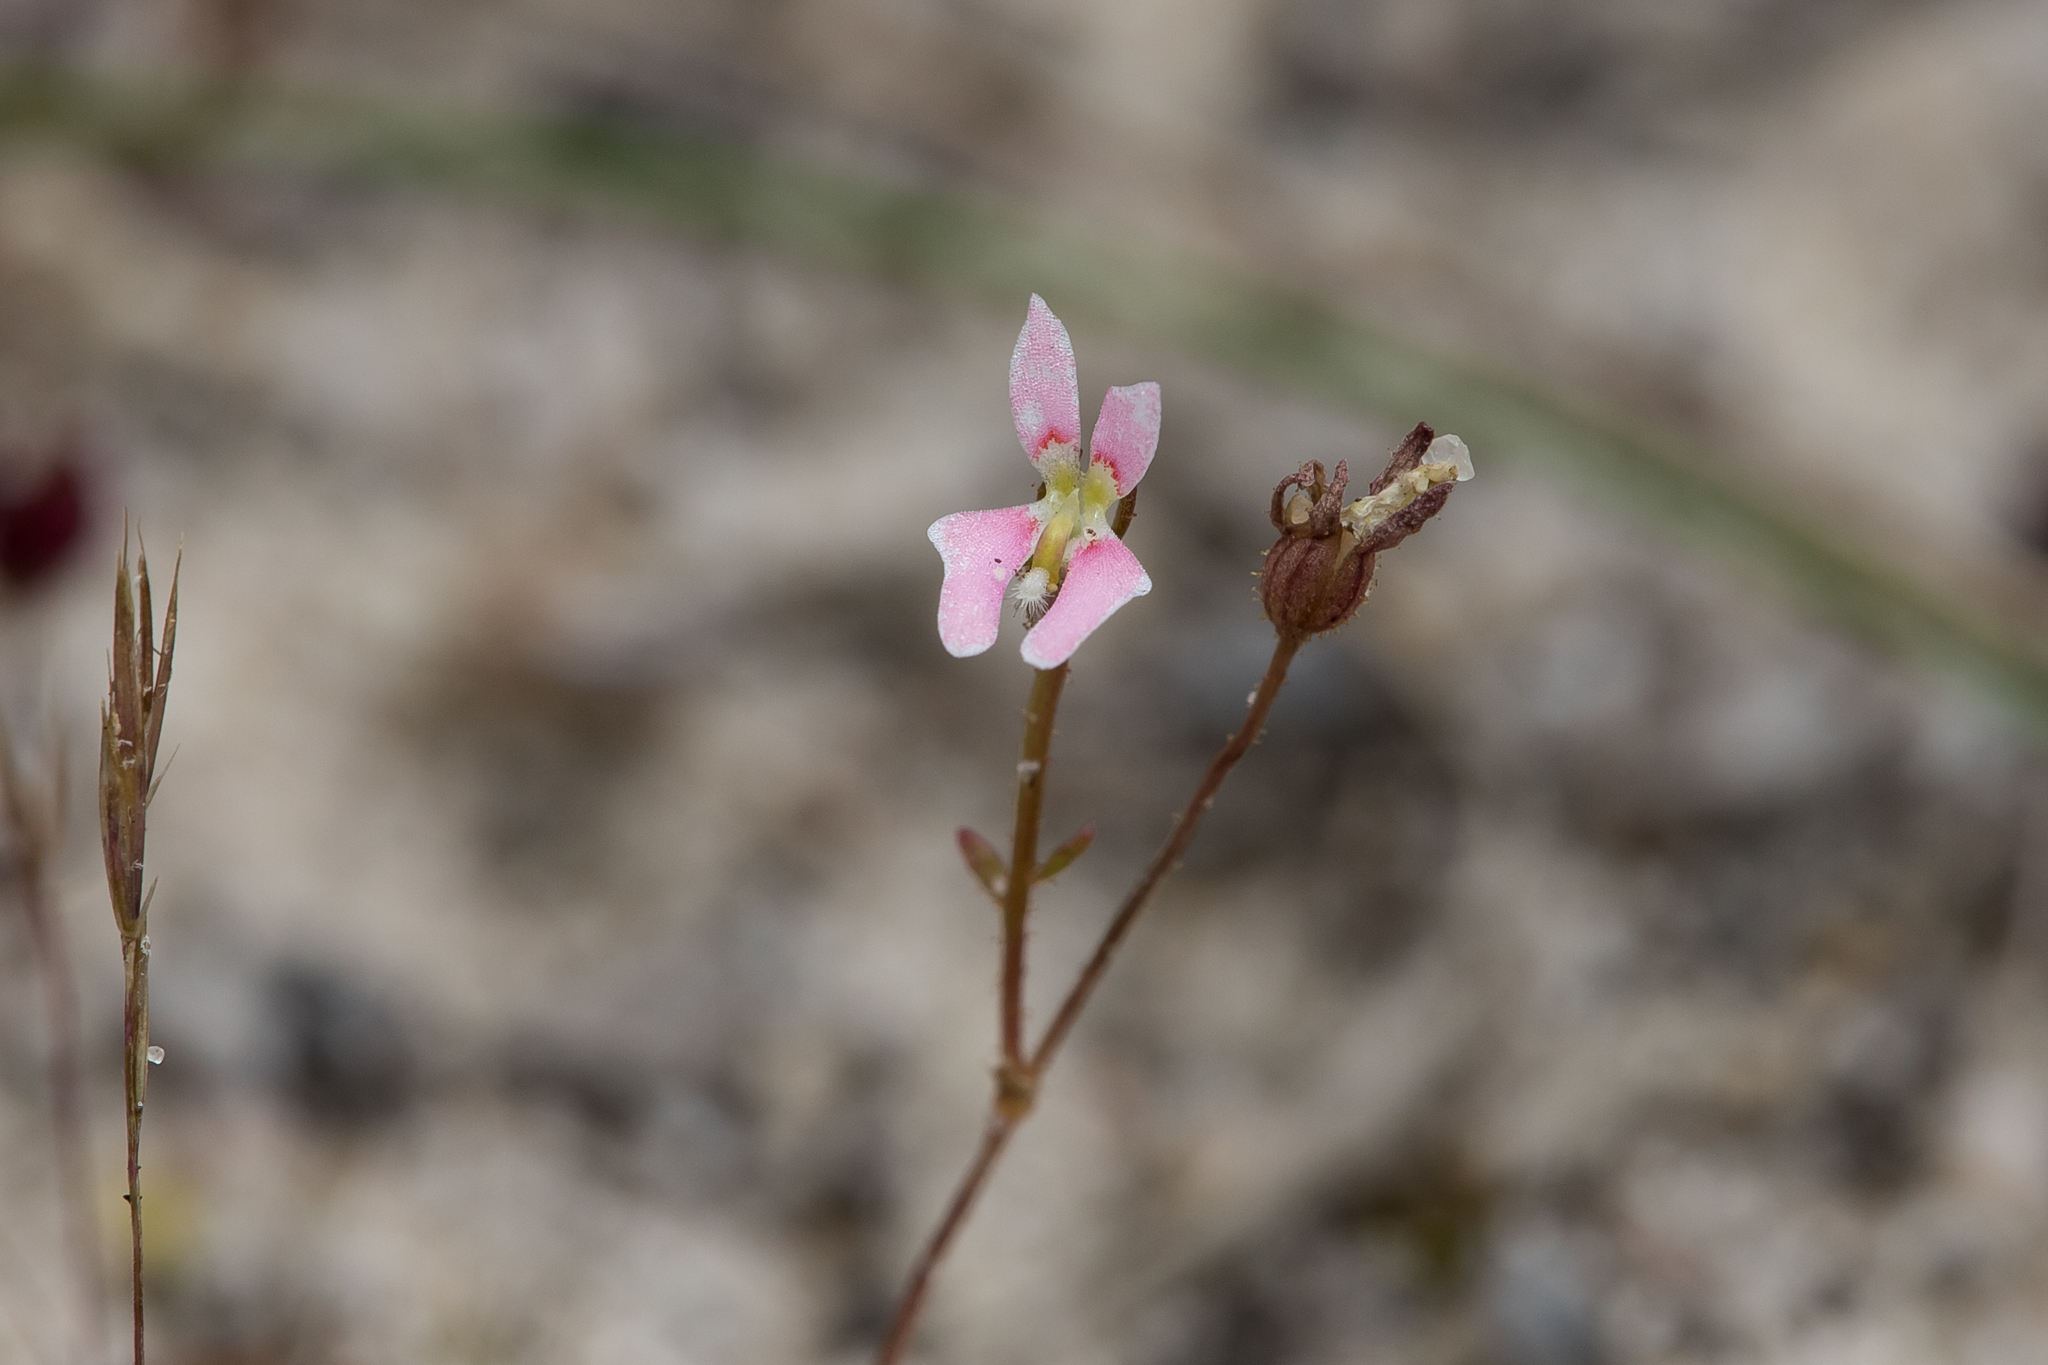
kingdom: Plantae
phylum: Tracheophyta
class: Magnoliopsida
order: Asterales
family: Stylidiaceae
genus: Stylidium
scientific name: Stylidium calcaratum
